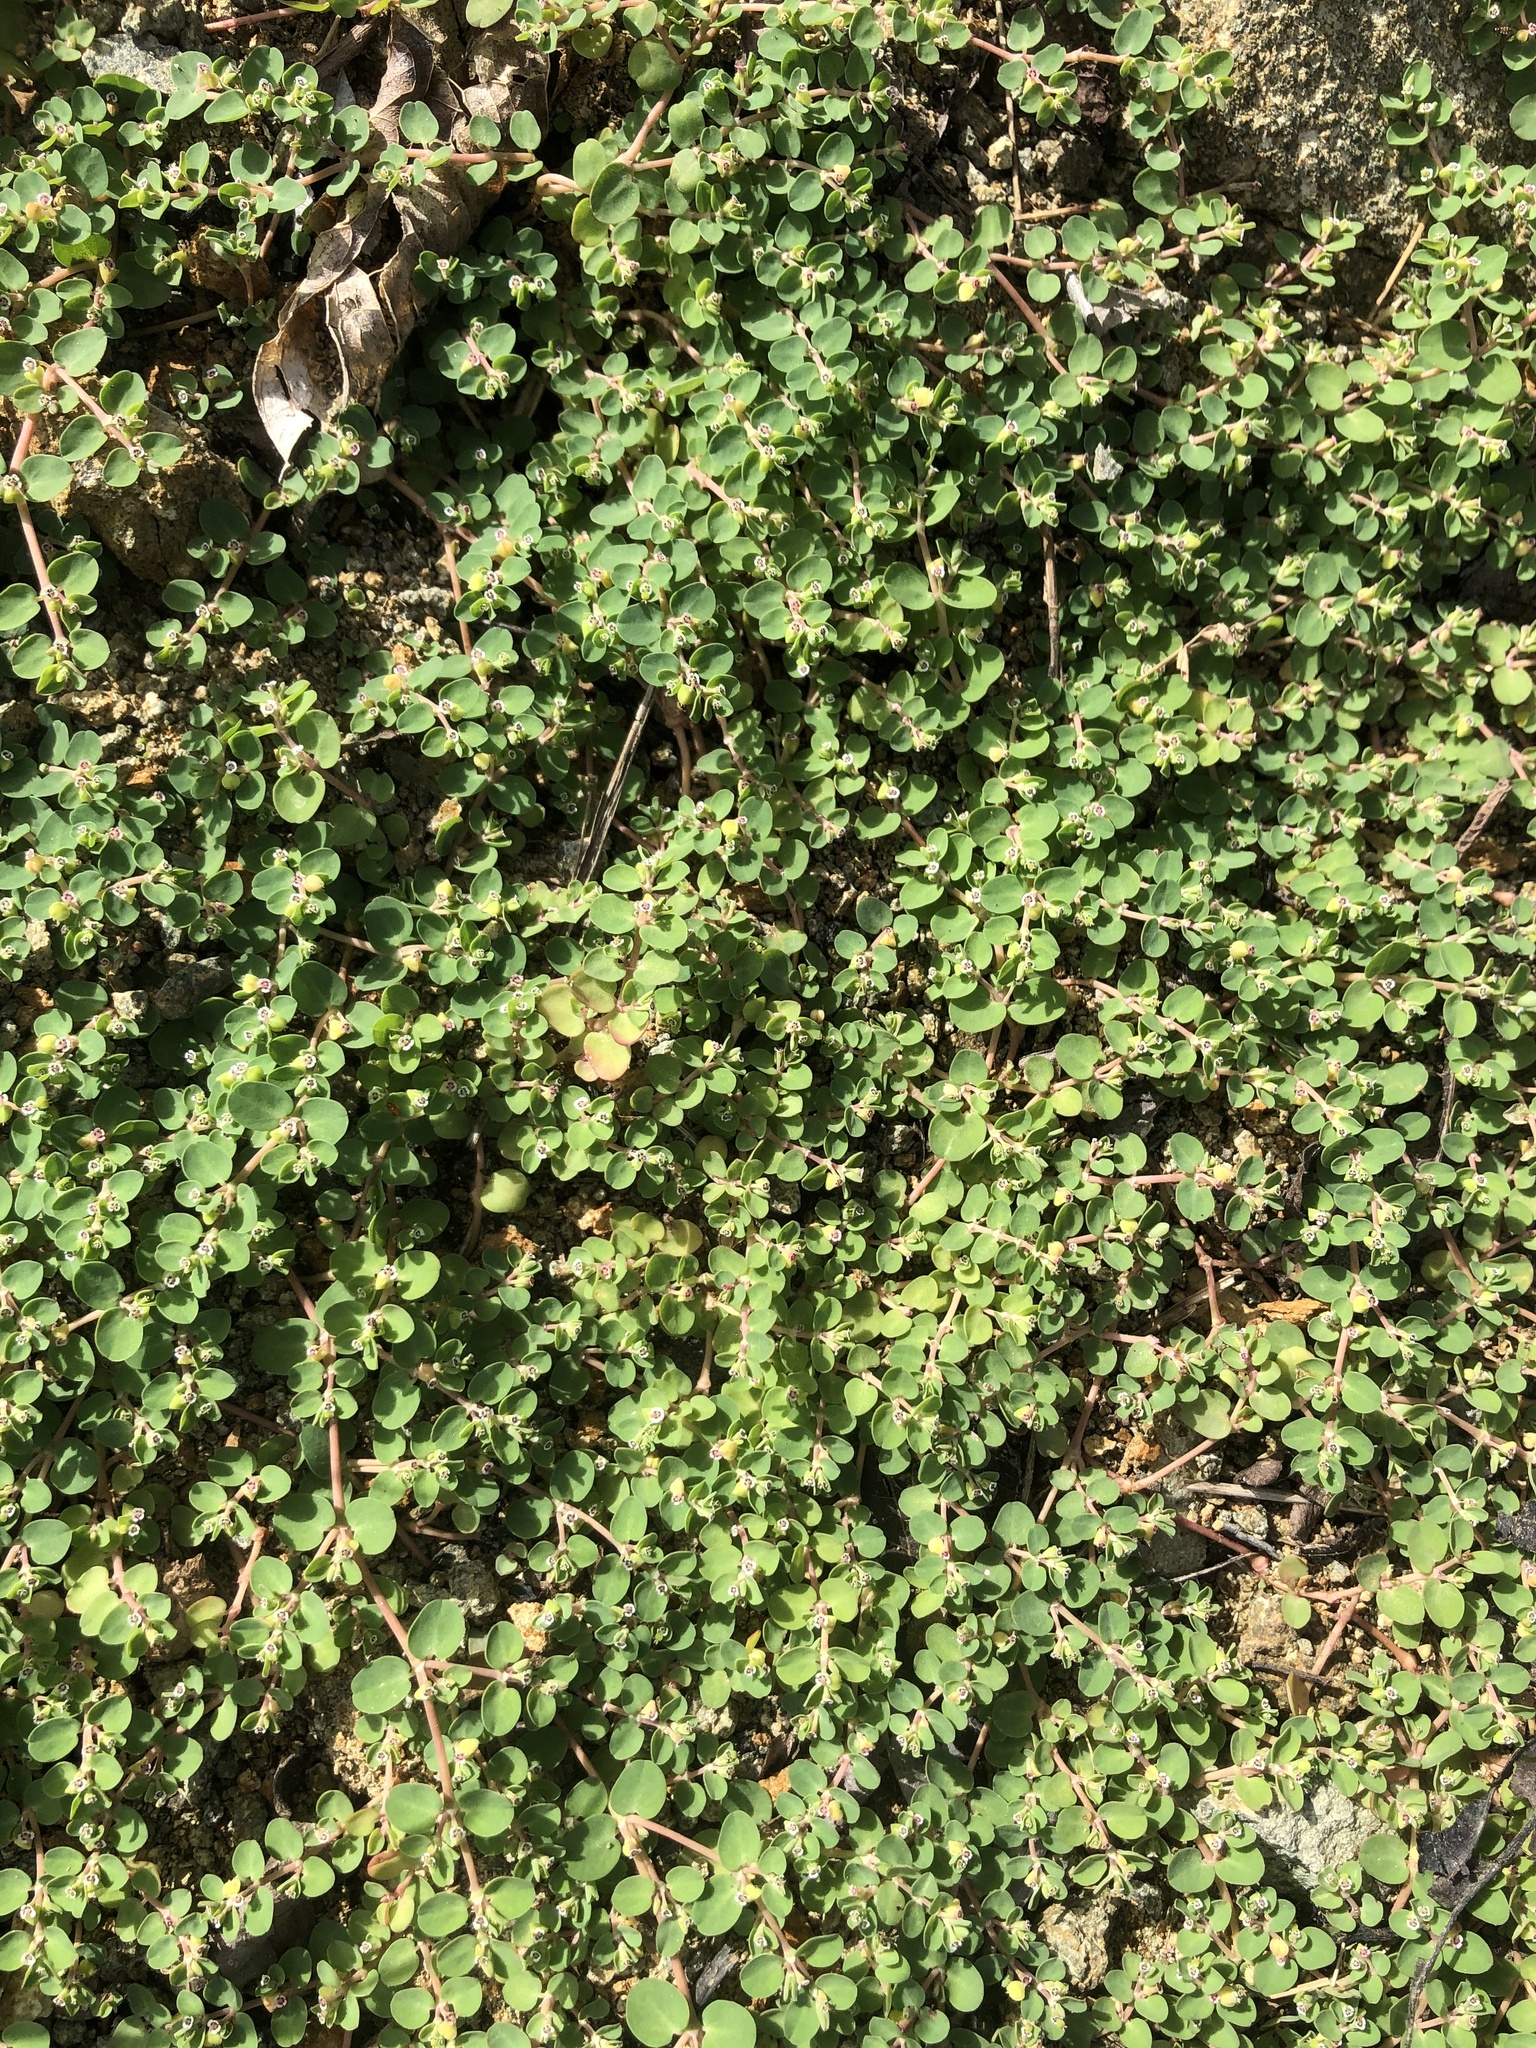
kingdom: Plantae
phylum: Tracheophyta
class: Magnoliopsida
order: Malpighiales
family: Euphorbiaceae
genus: Euphorbia
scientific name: Euphorbia serpens
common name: Matted sandmat
